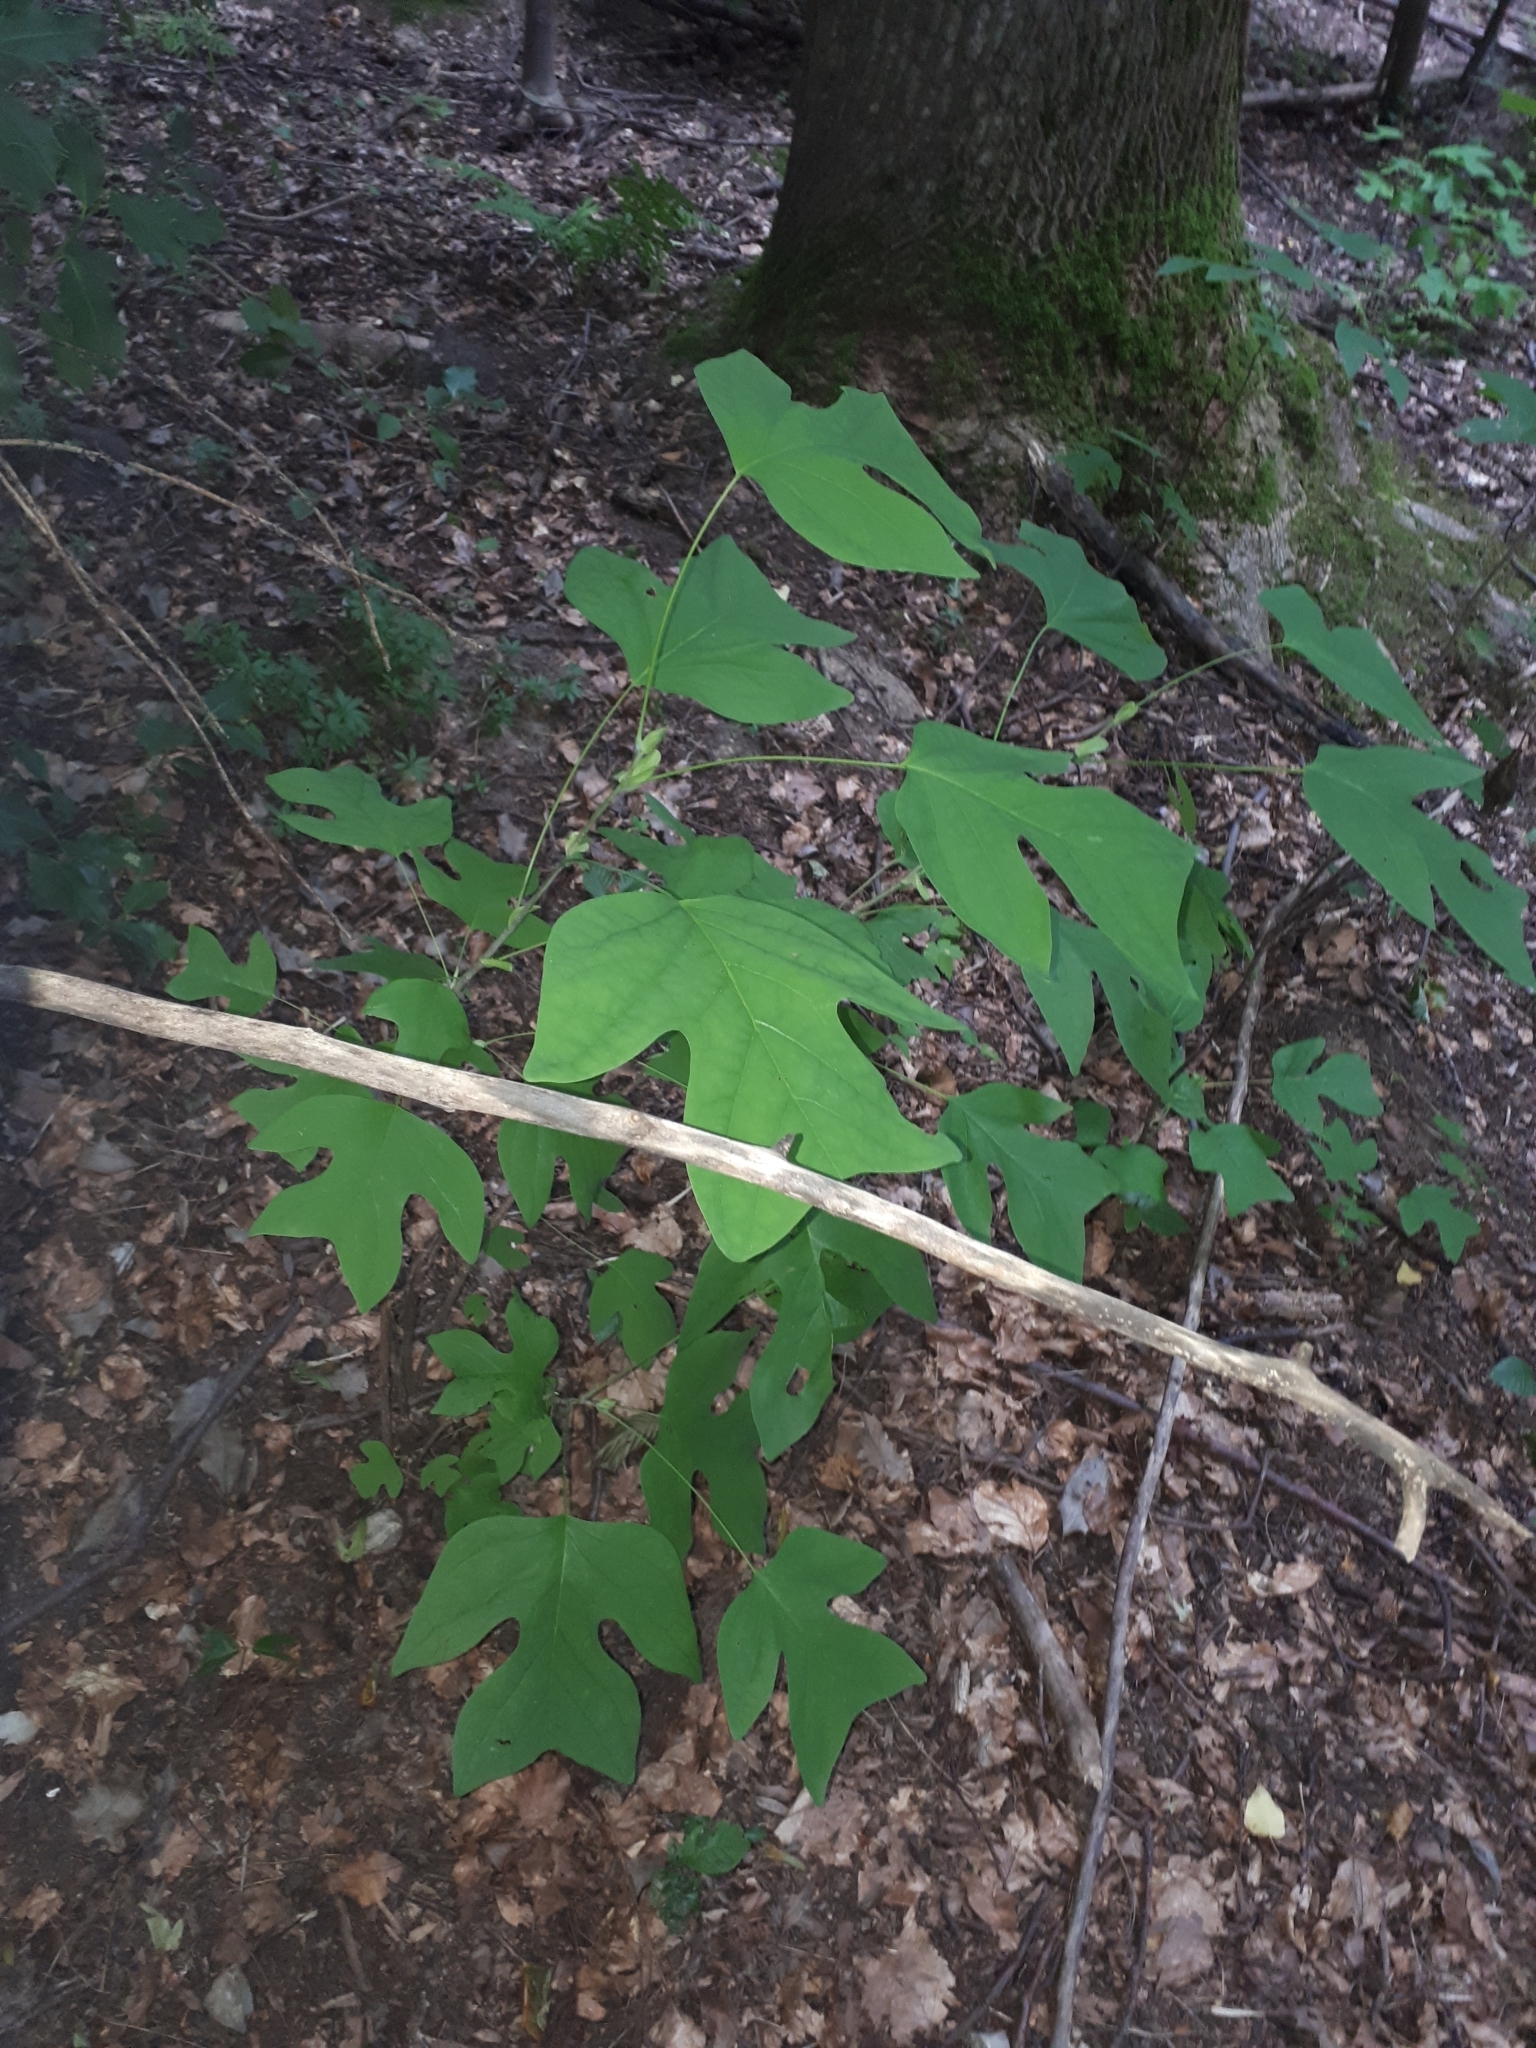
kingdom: Plantae
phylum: Tracheophyta
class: Magnoliopsida
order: Magnoliales
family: Magnoliaceae
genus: Liriodendron
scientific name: Liriodendron tulipifera
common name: Tulip tree
